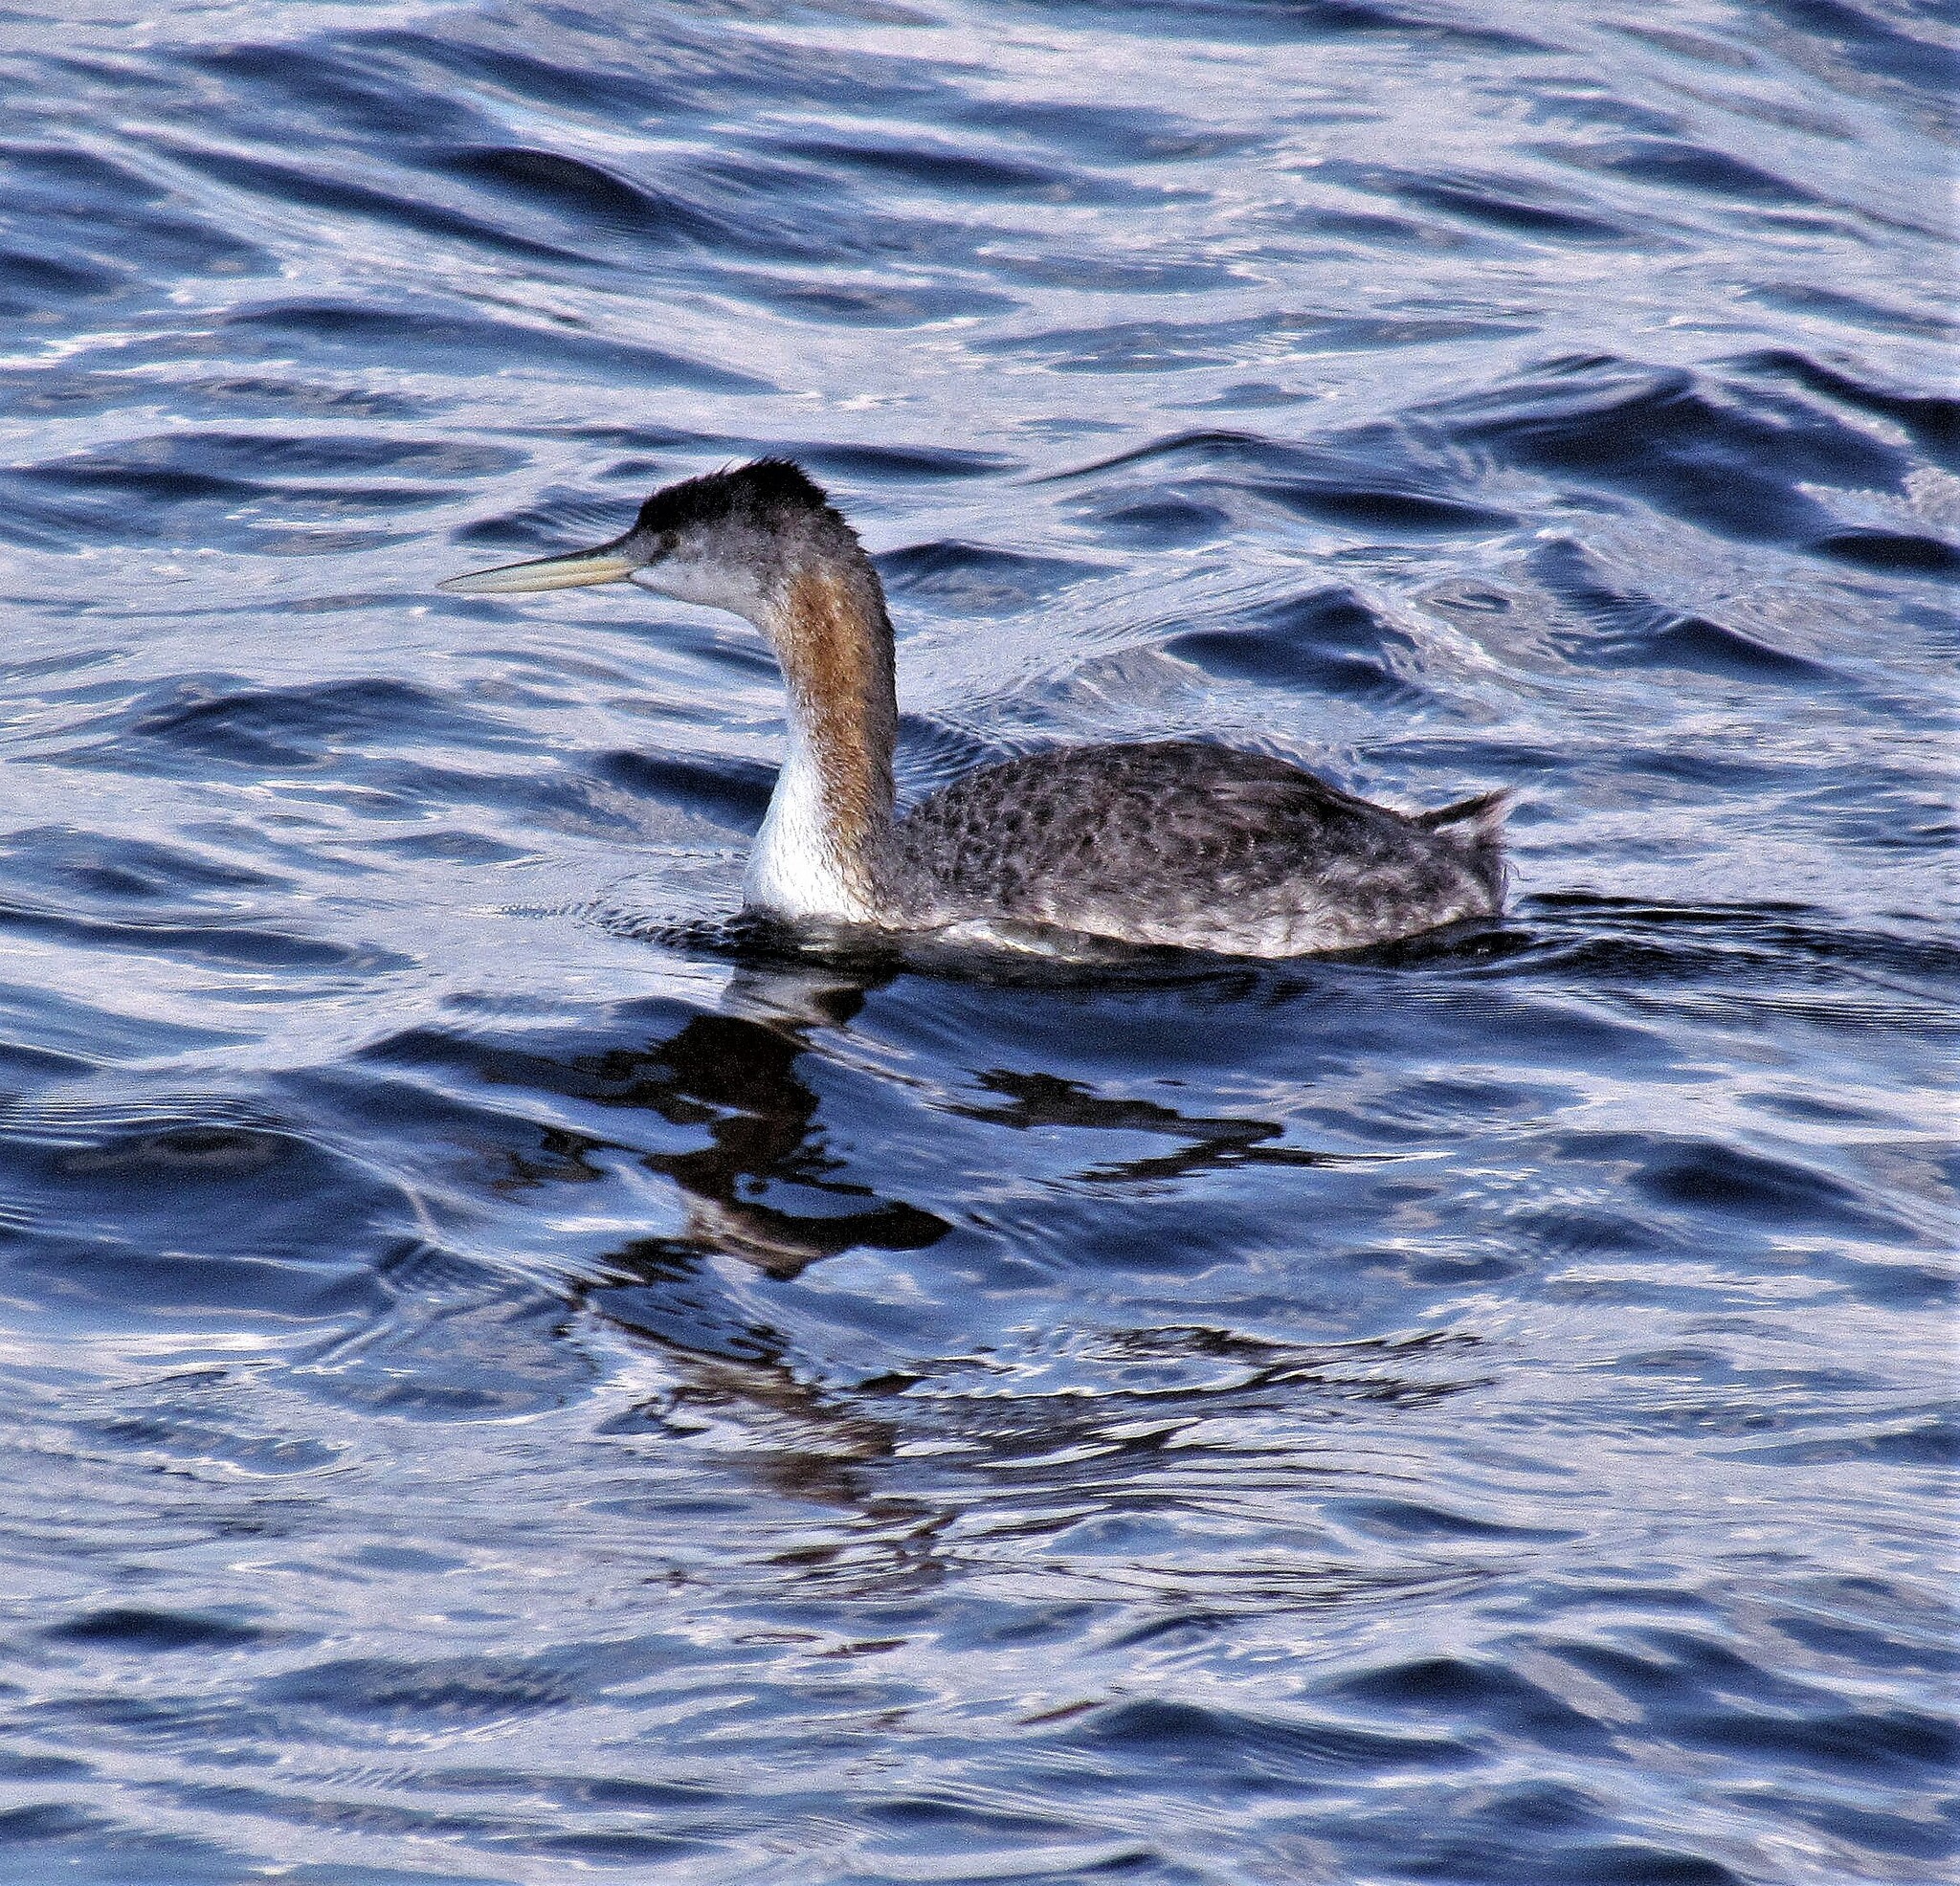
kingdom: Animalia
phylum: Chordata
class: Aves
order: Podicipediformes
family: Podicipedidae
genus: Podiceps
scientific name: Podiceps major
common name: Great grebe
